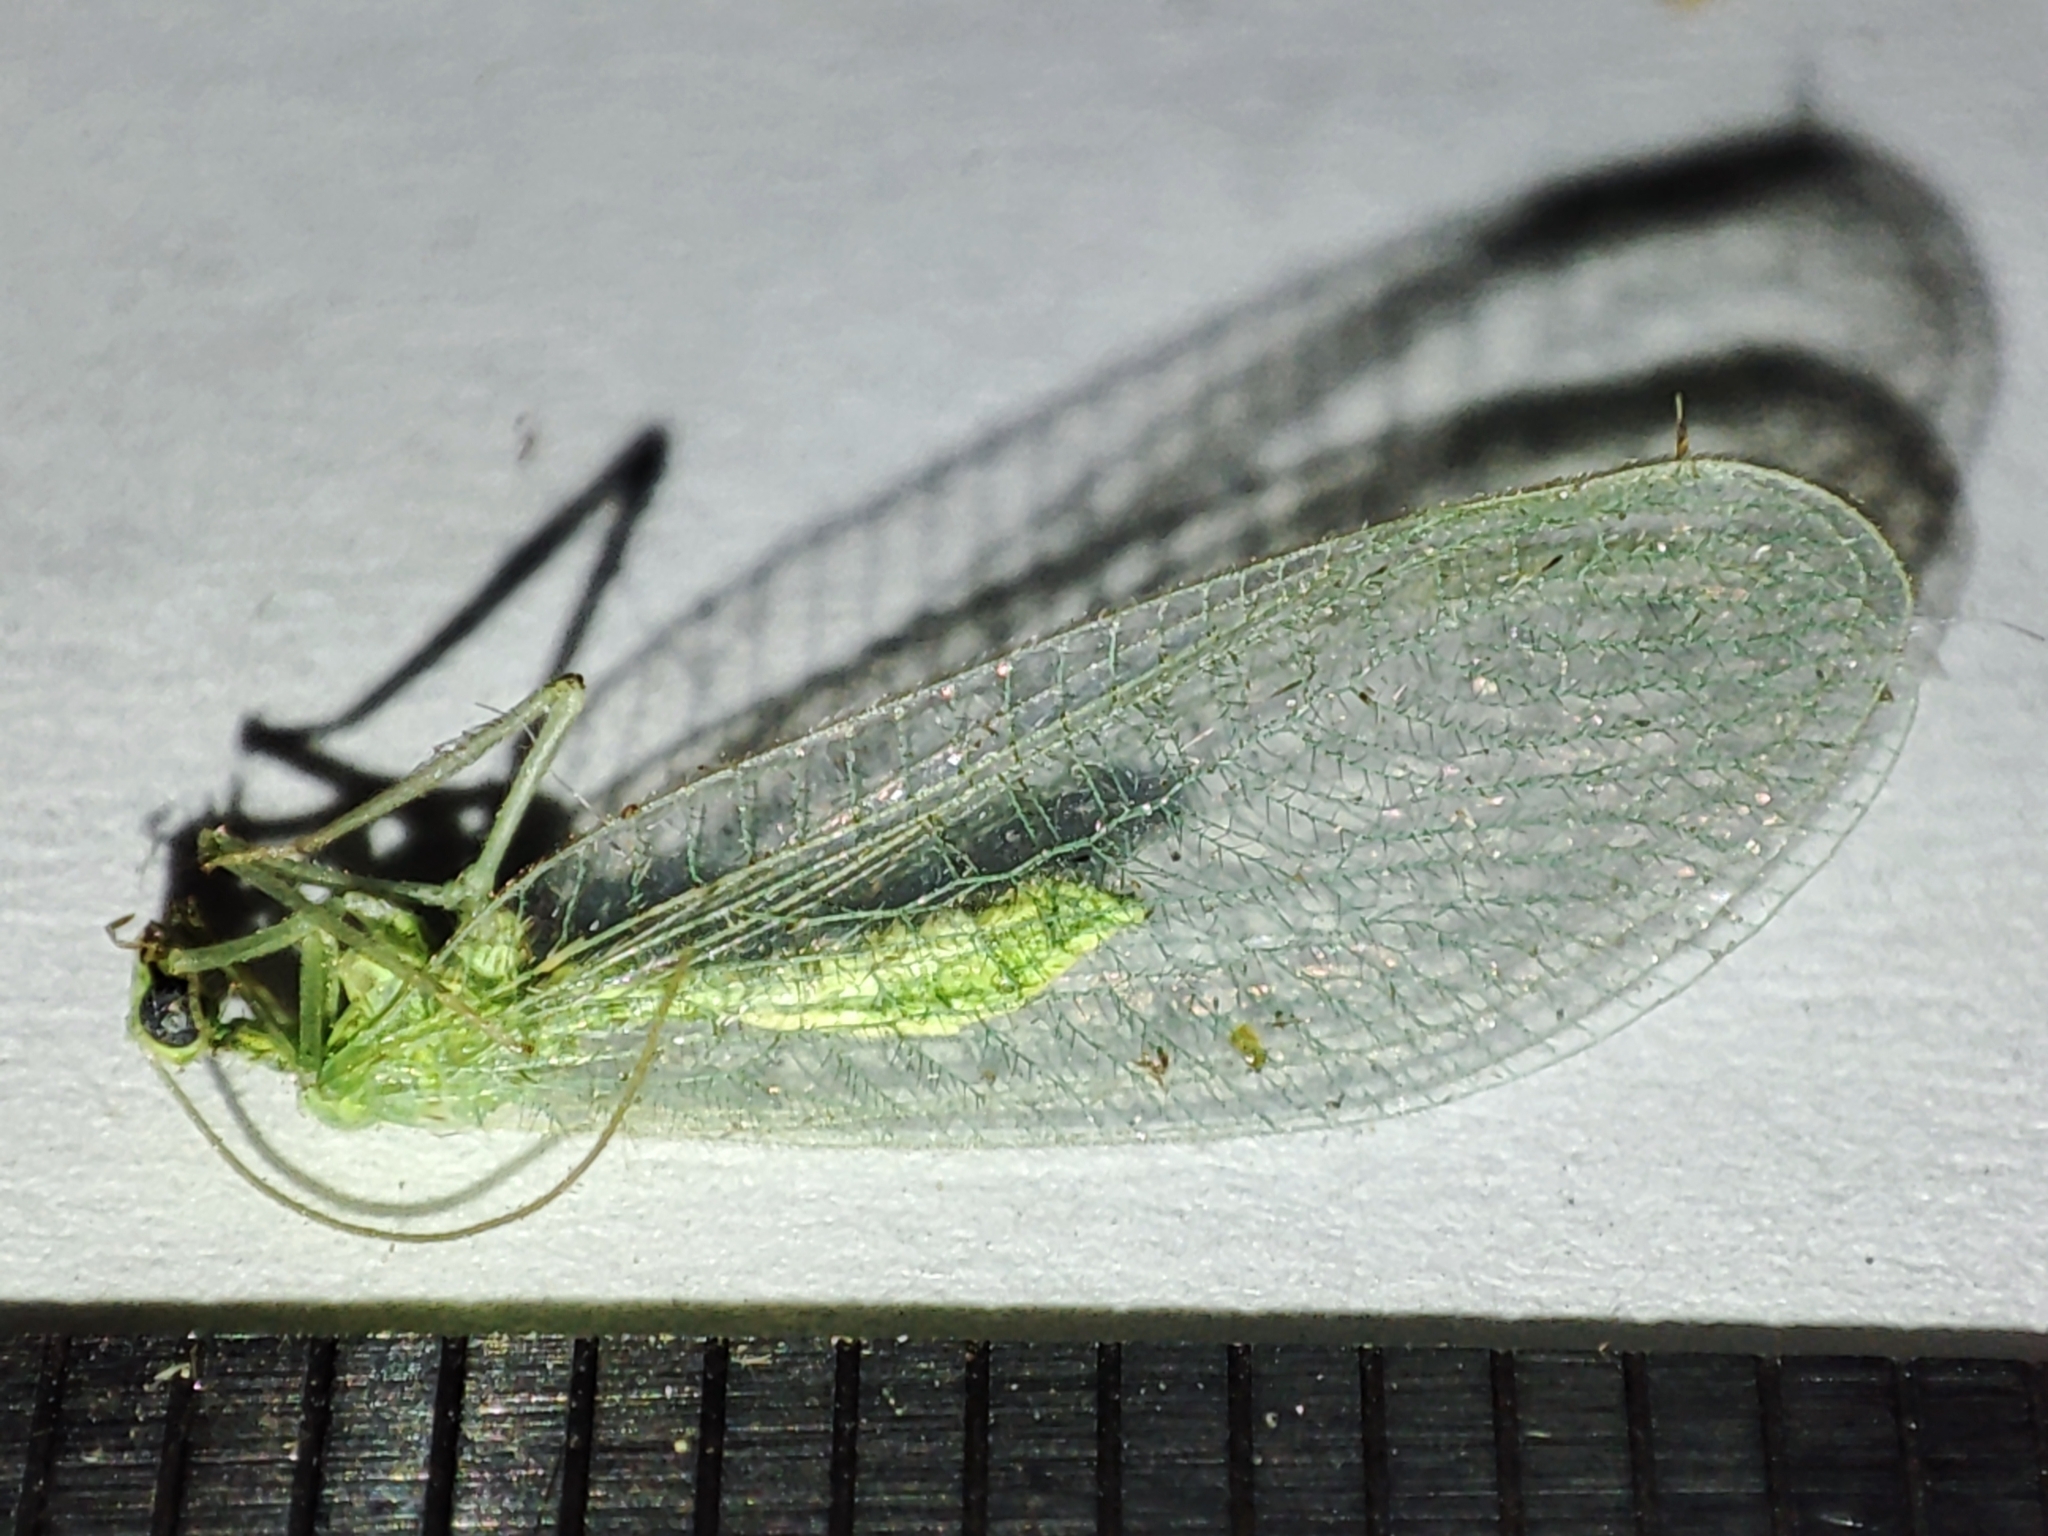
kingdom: Animalia
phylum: Arthropoda
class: Insecta
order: Neuroptera
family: Chrysopidae
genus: Chrysoperla
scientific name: Chrysoperla
